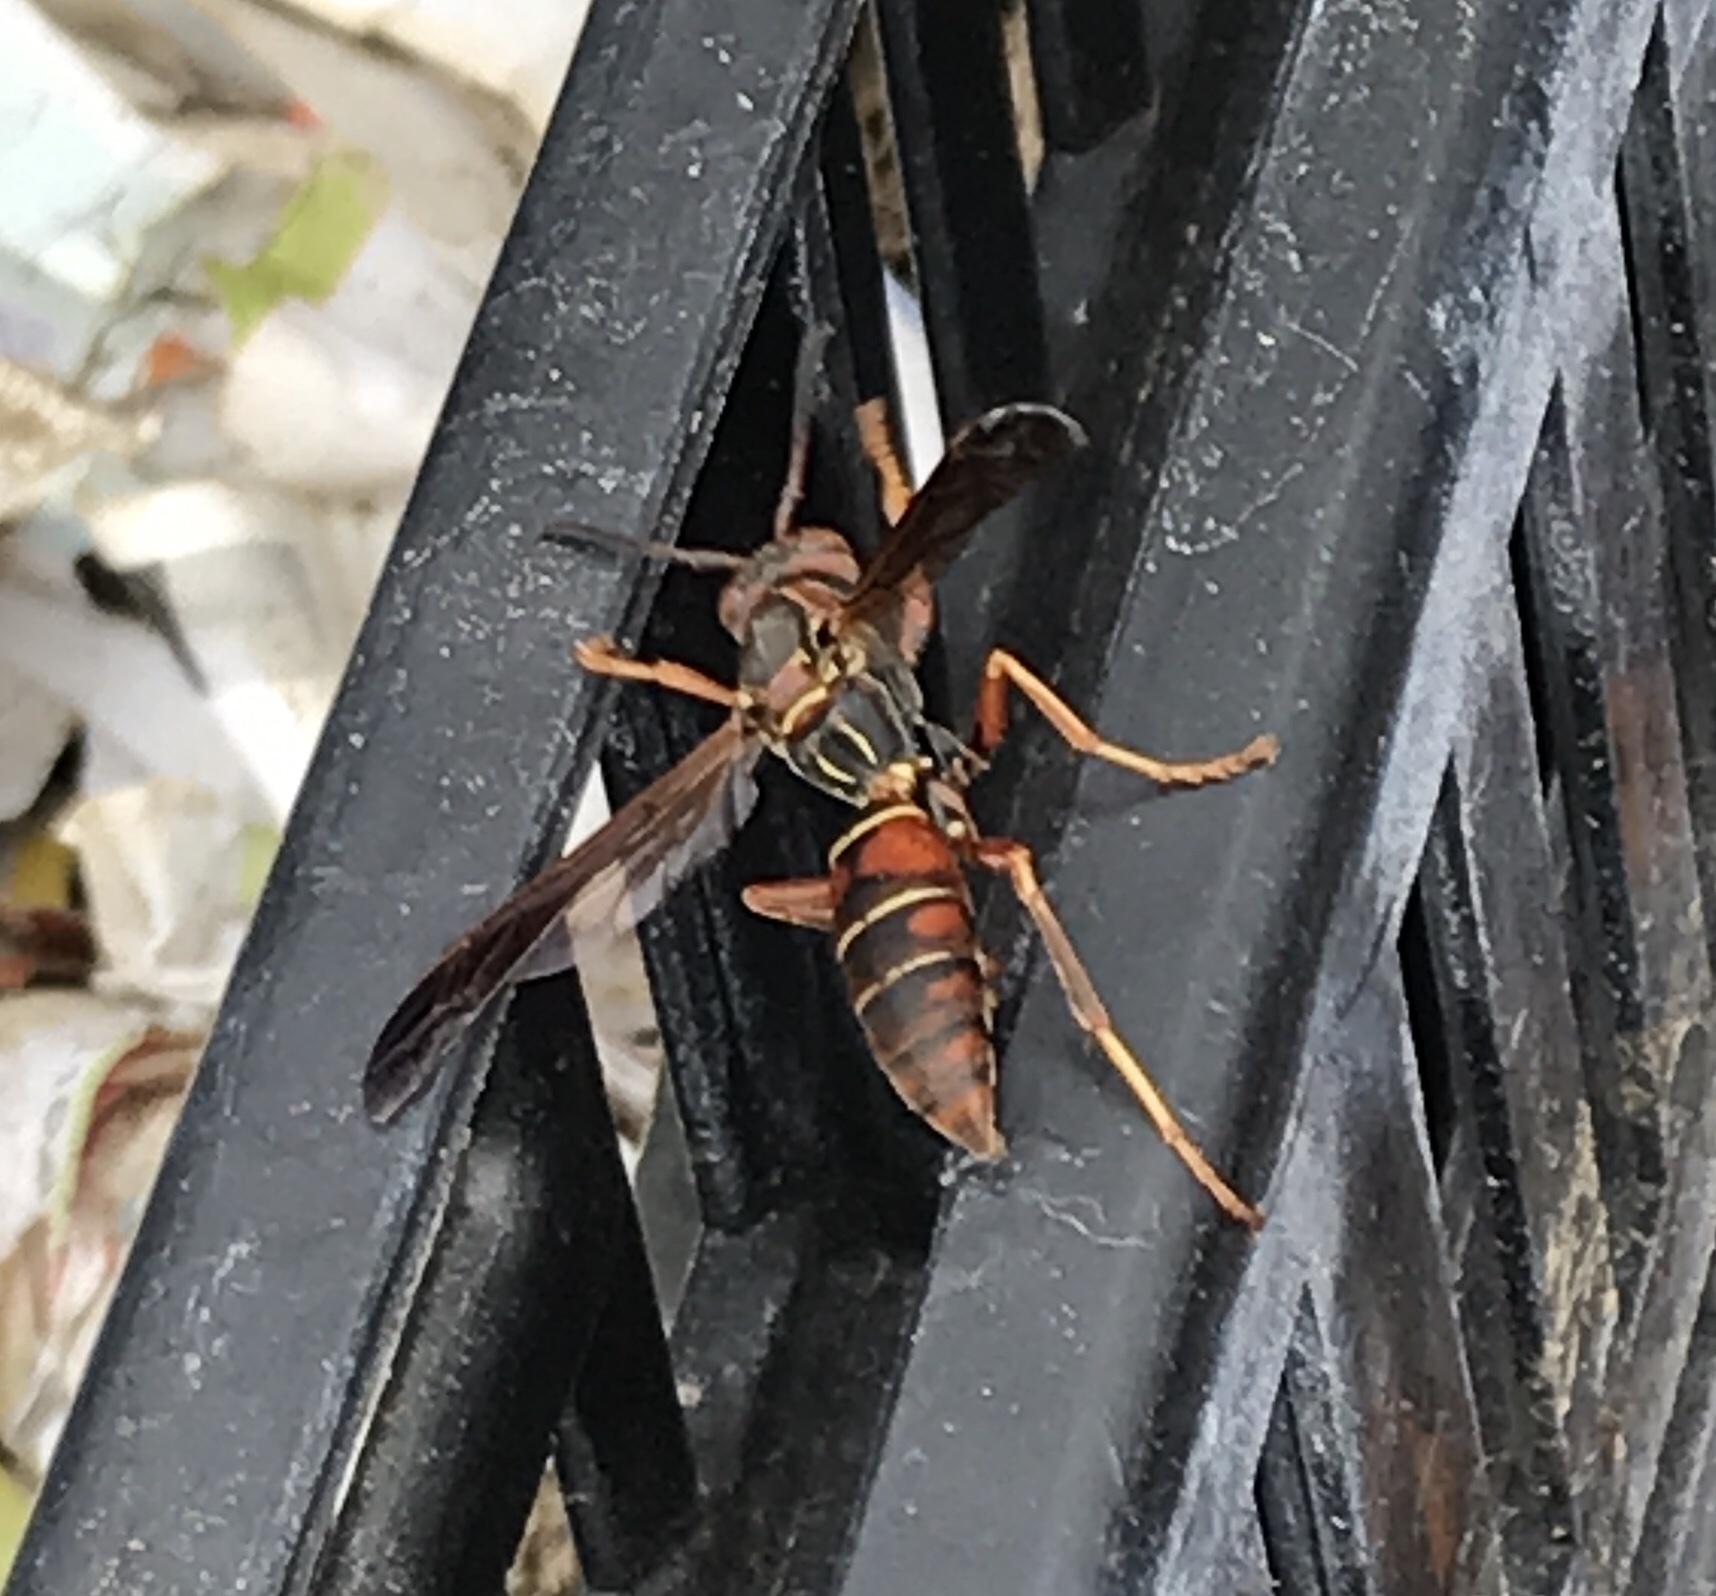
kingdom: Animalia
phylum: Arthropoda
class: Insecta
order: Hymenoptera
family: Eumenidae
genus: Polistes
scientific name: Polistes fuscatus
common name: Dark paper wasp
